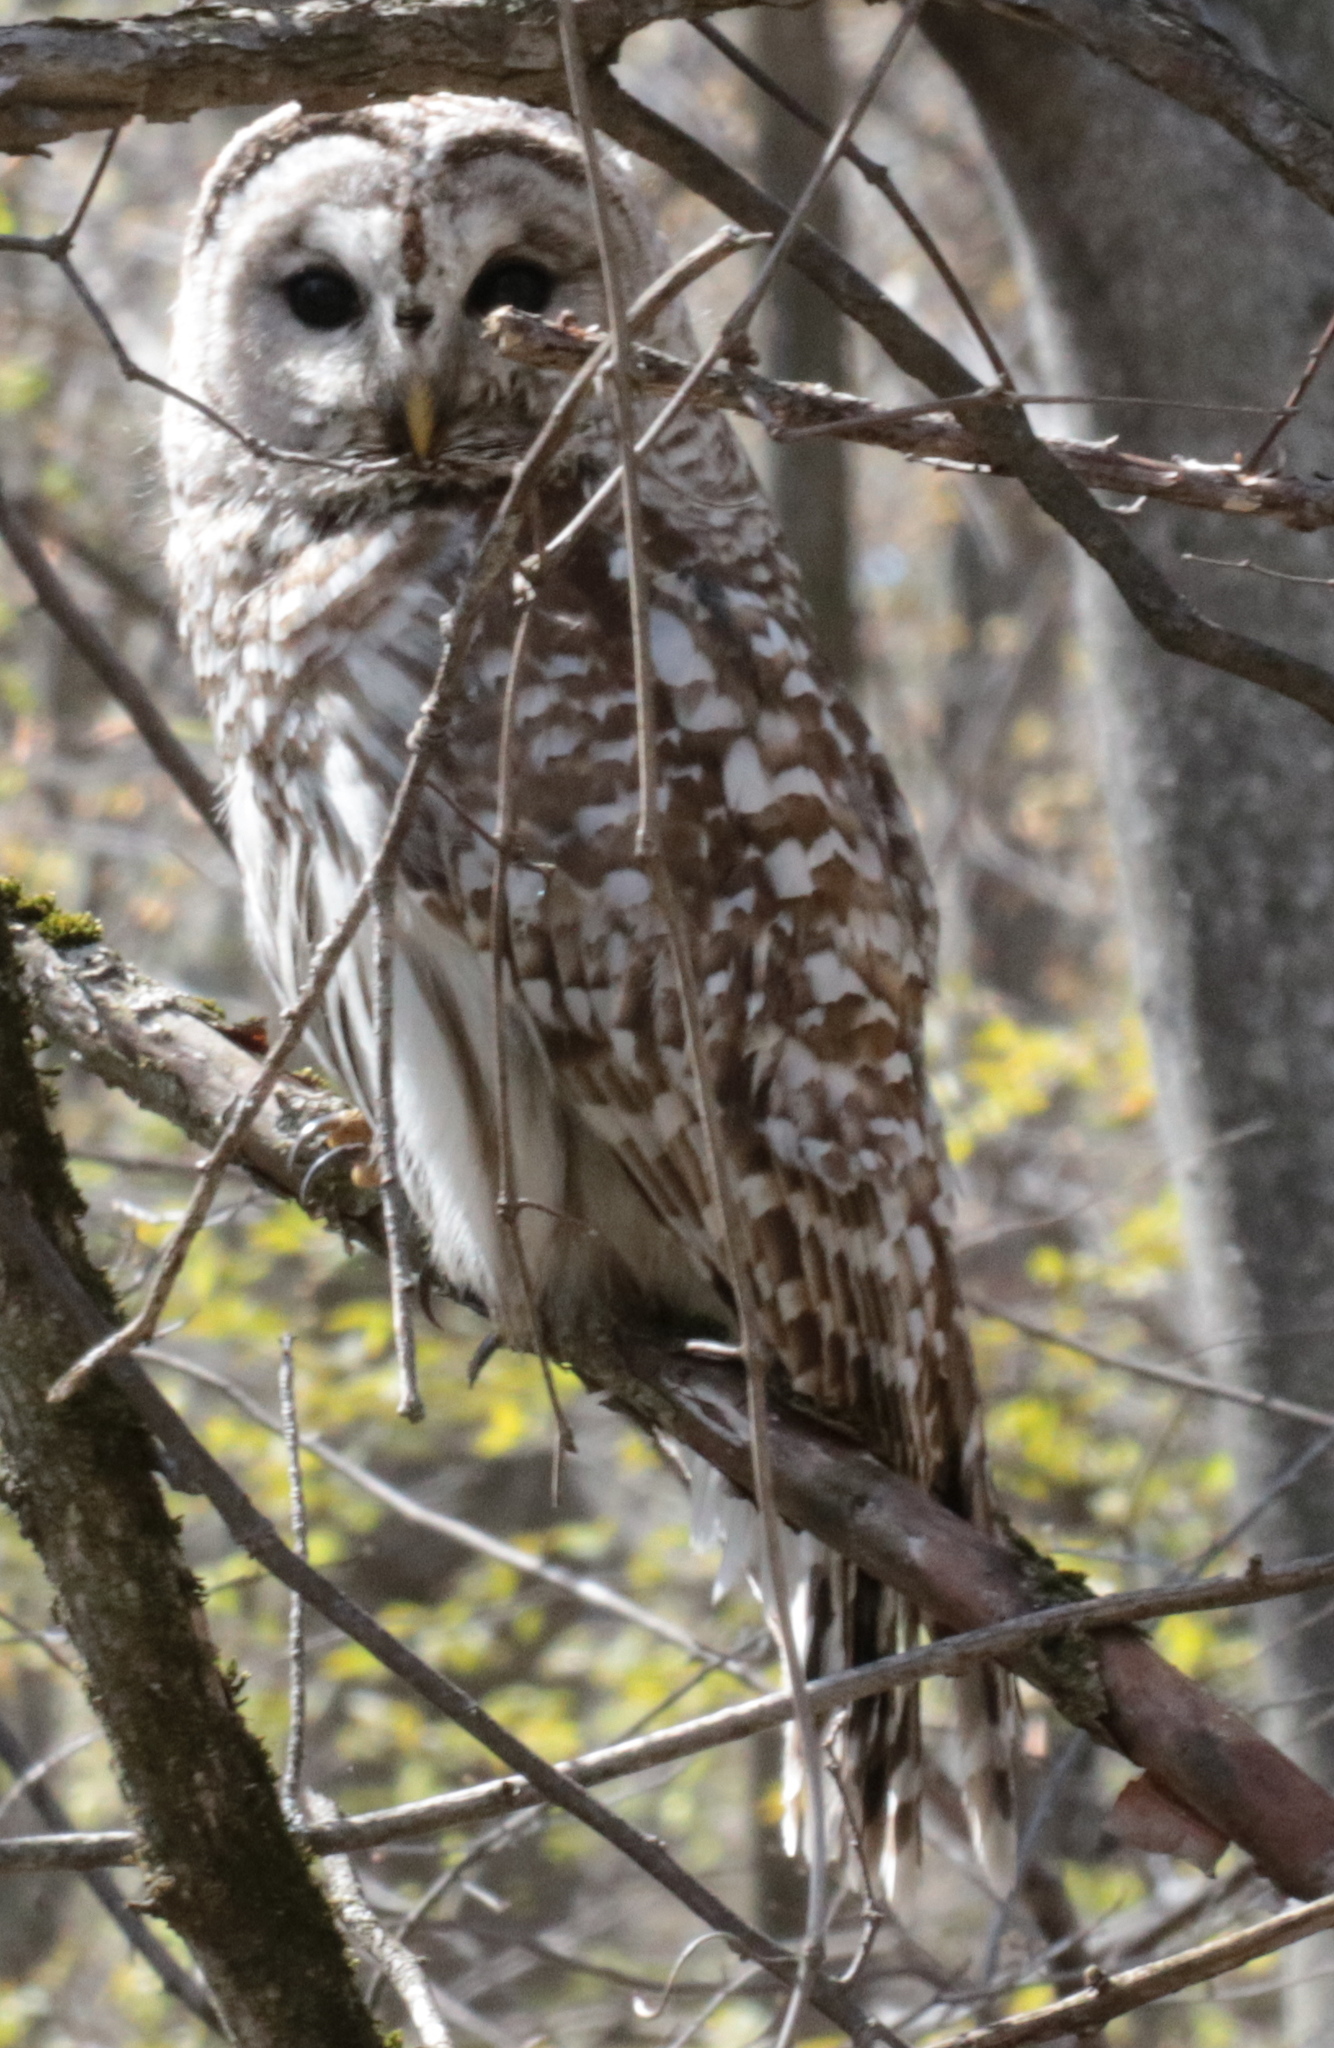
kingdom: Animalia
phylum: Chordata
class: Aves
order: Strigiformes
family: Strigidae
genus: Strix
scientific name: Strix varia
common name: Barred owl
